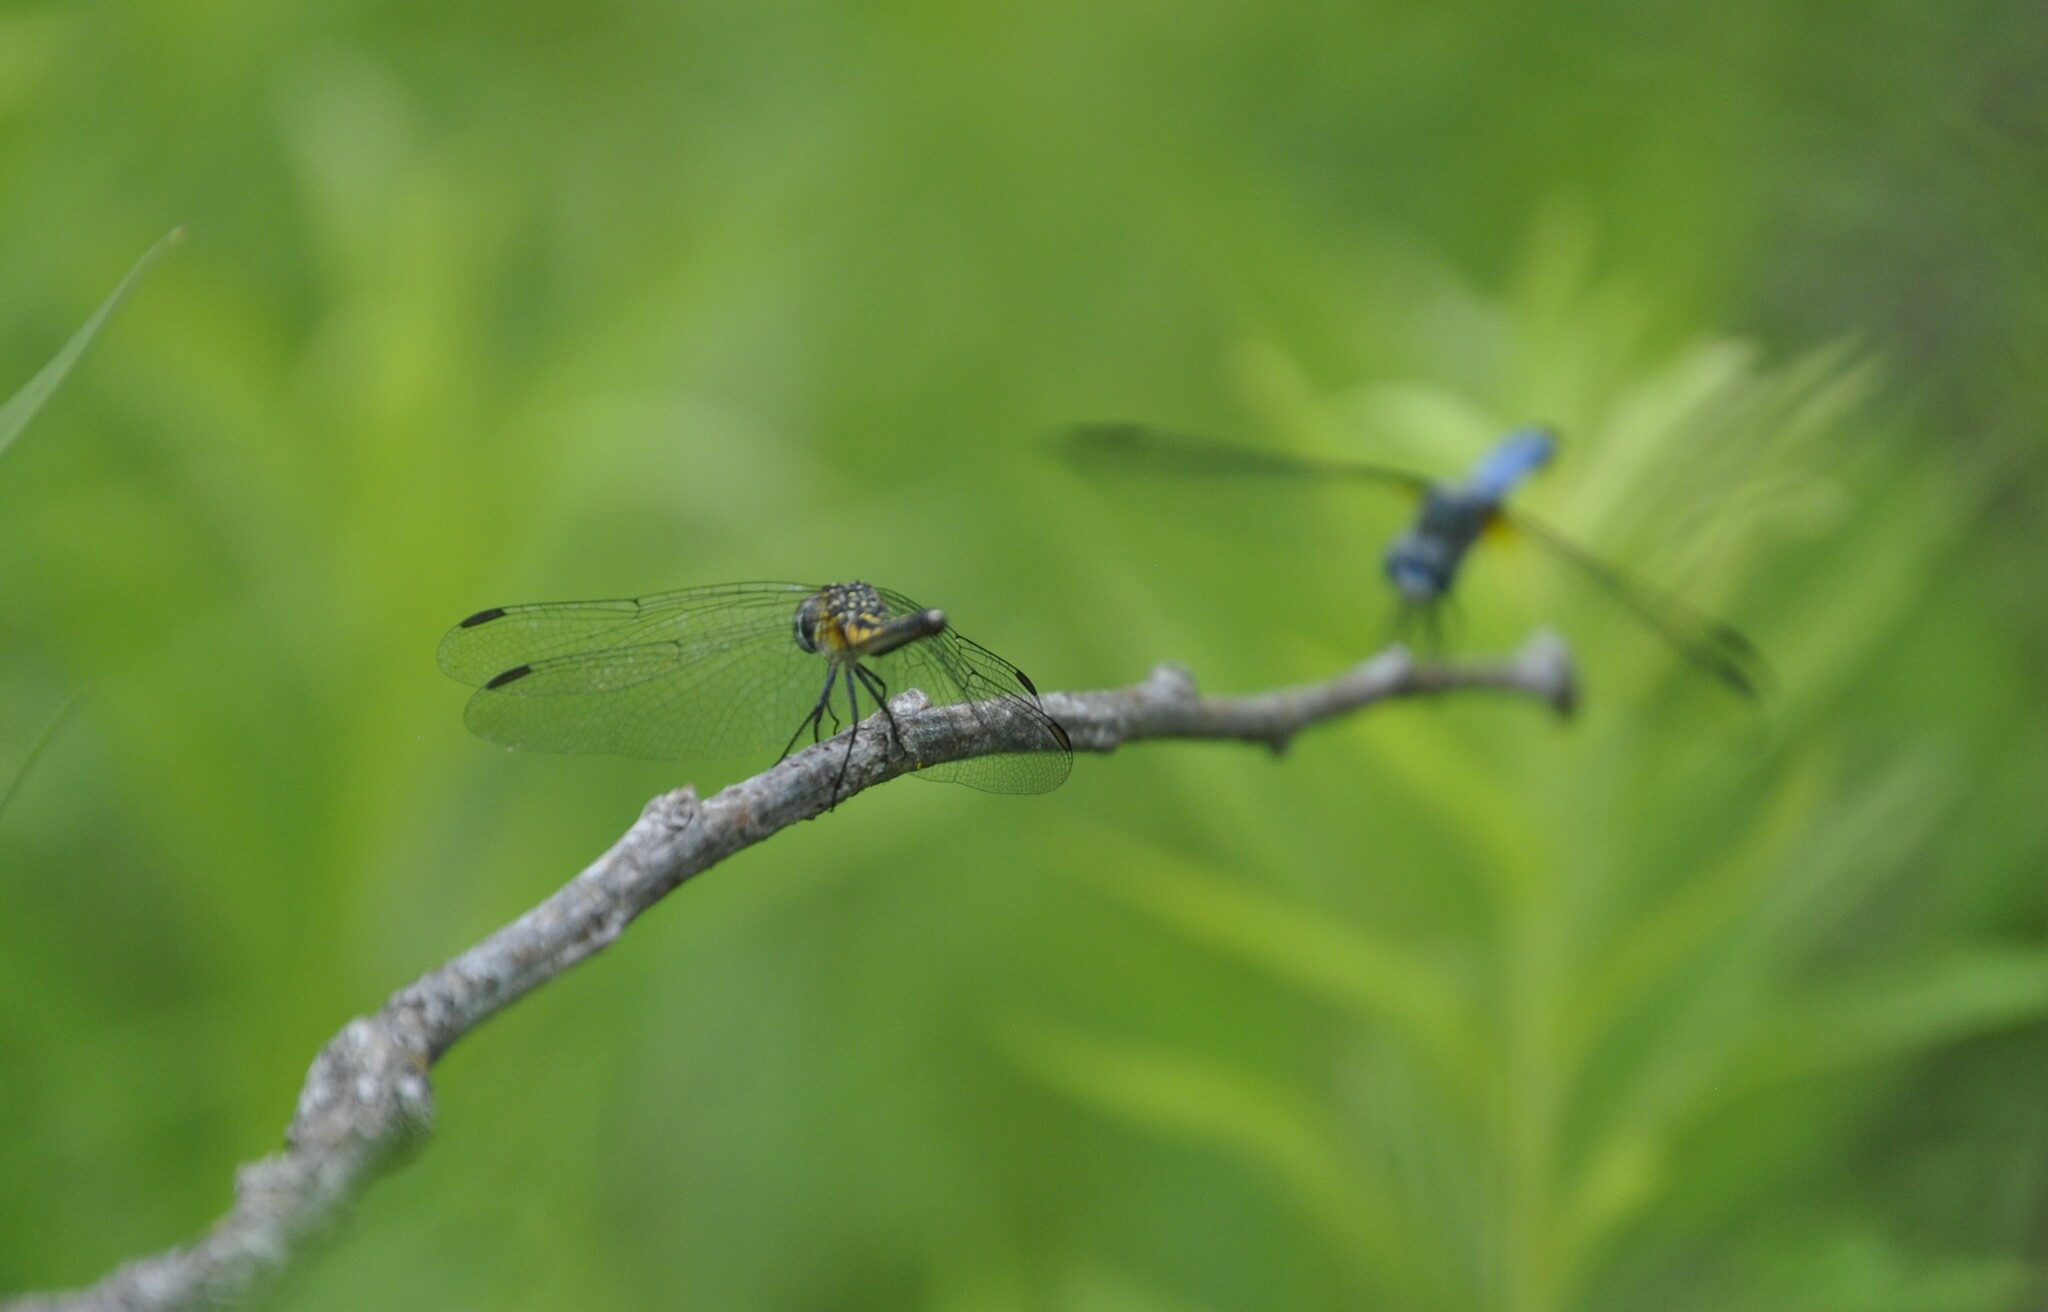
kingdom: Animalia
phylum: Arthropoda
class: Insecta
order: Odonata
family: Libellulidae
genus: Pachydiplax
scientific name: Pachydiplax longipennis
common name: Blue dasher
